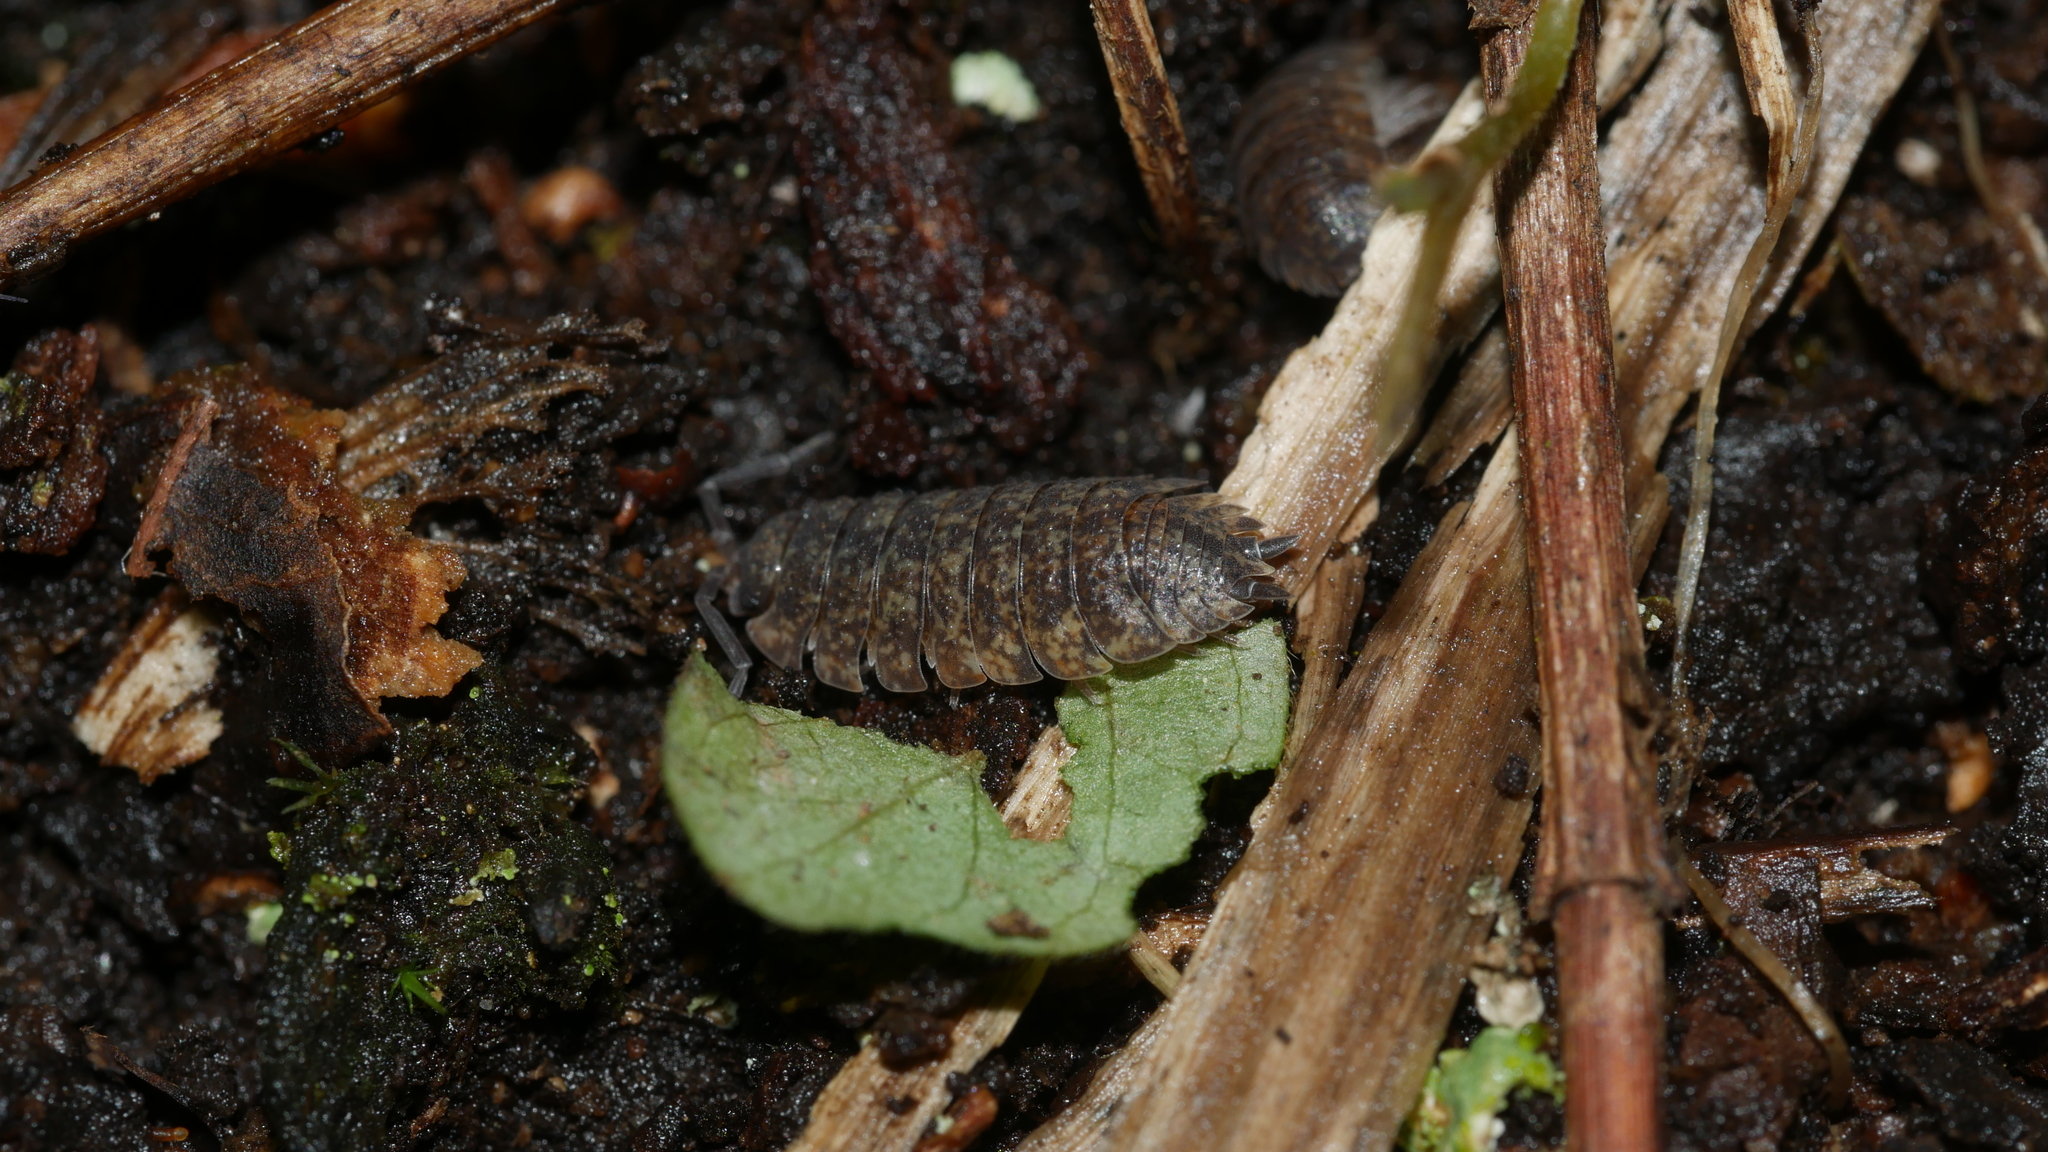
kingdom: Animalia
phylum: Arthropoda
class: Malacostraca
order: Isopoda
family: Porcellionidae
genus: Porcellio
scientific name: Porcellio scaber
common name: Common rough woodlouse
